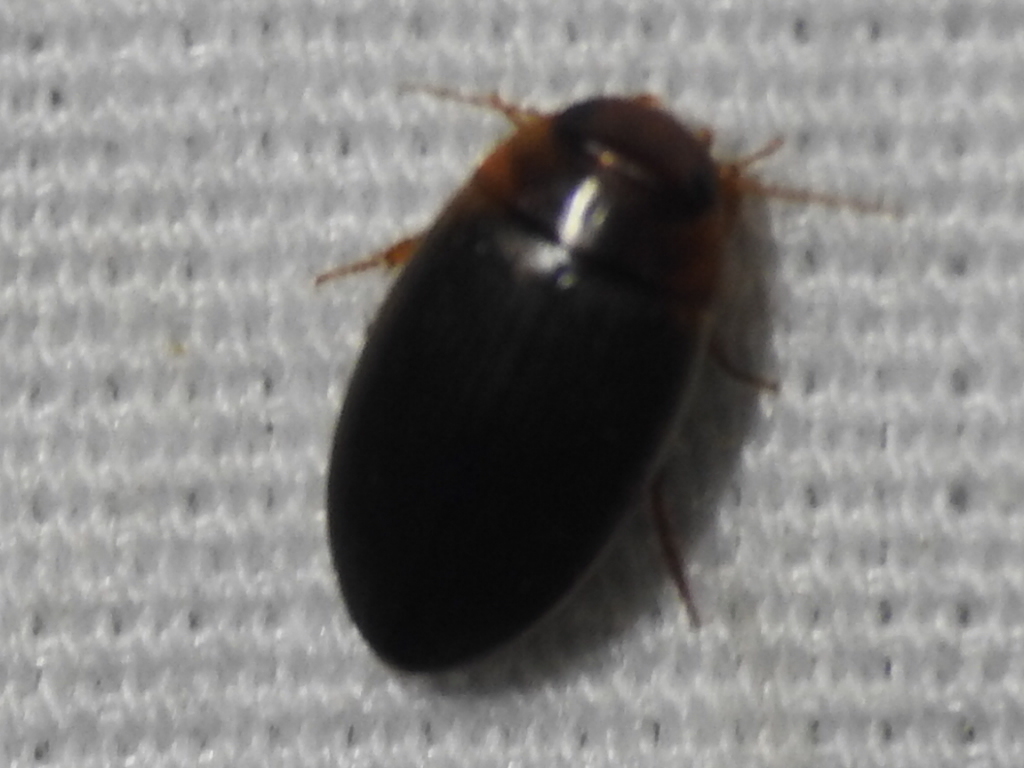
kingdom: Animalia
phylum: Arthropoda
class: Insecta
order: Coleoptera
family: Dytiscidae
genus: Copelatus
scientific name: Copelatus
